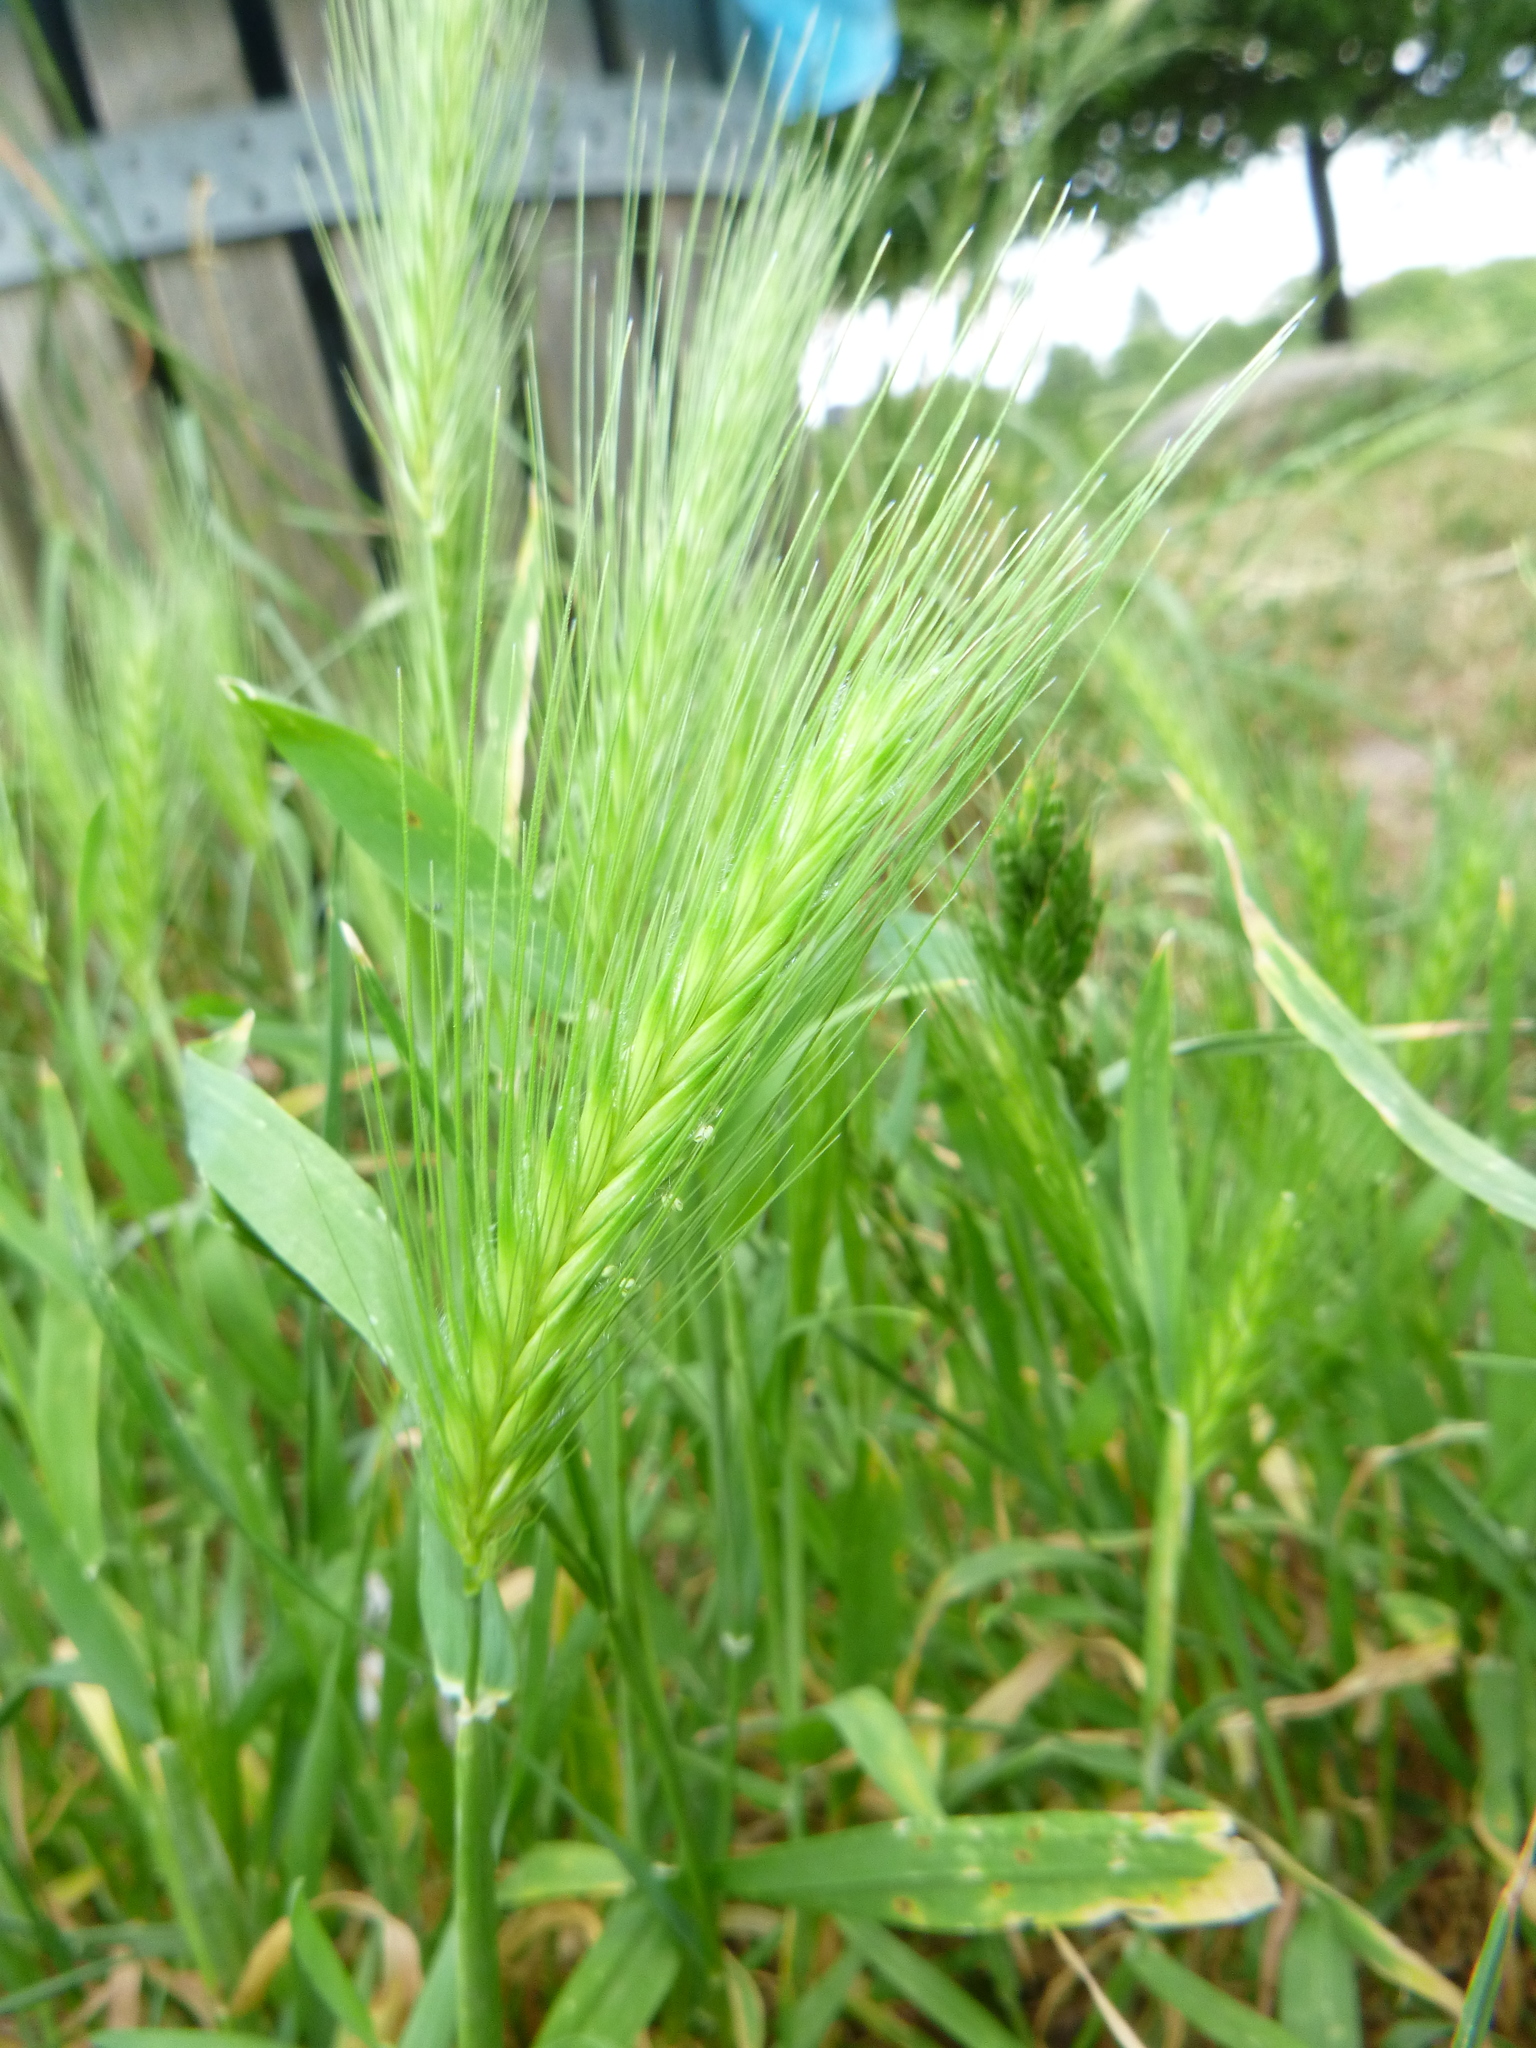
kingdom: Plantae
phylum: Tracheophyta
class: Liliopsida
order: Poales
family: Poaceae
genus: Hordeum
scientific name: Hordeum murinum
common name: Wall barley
